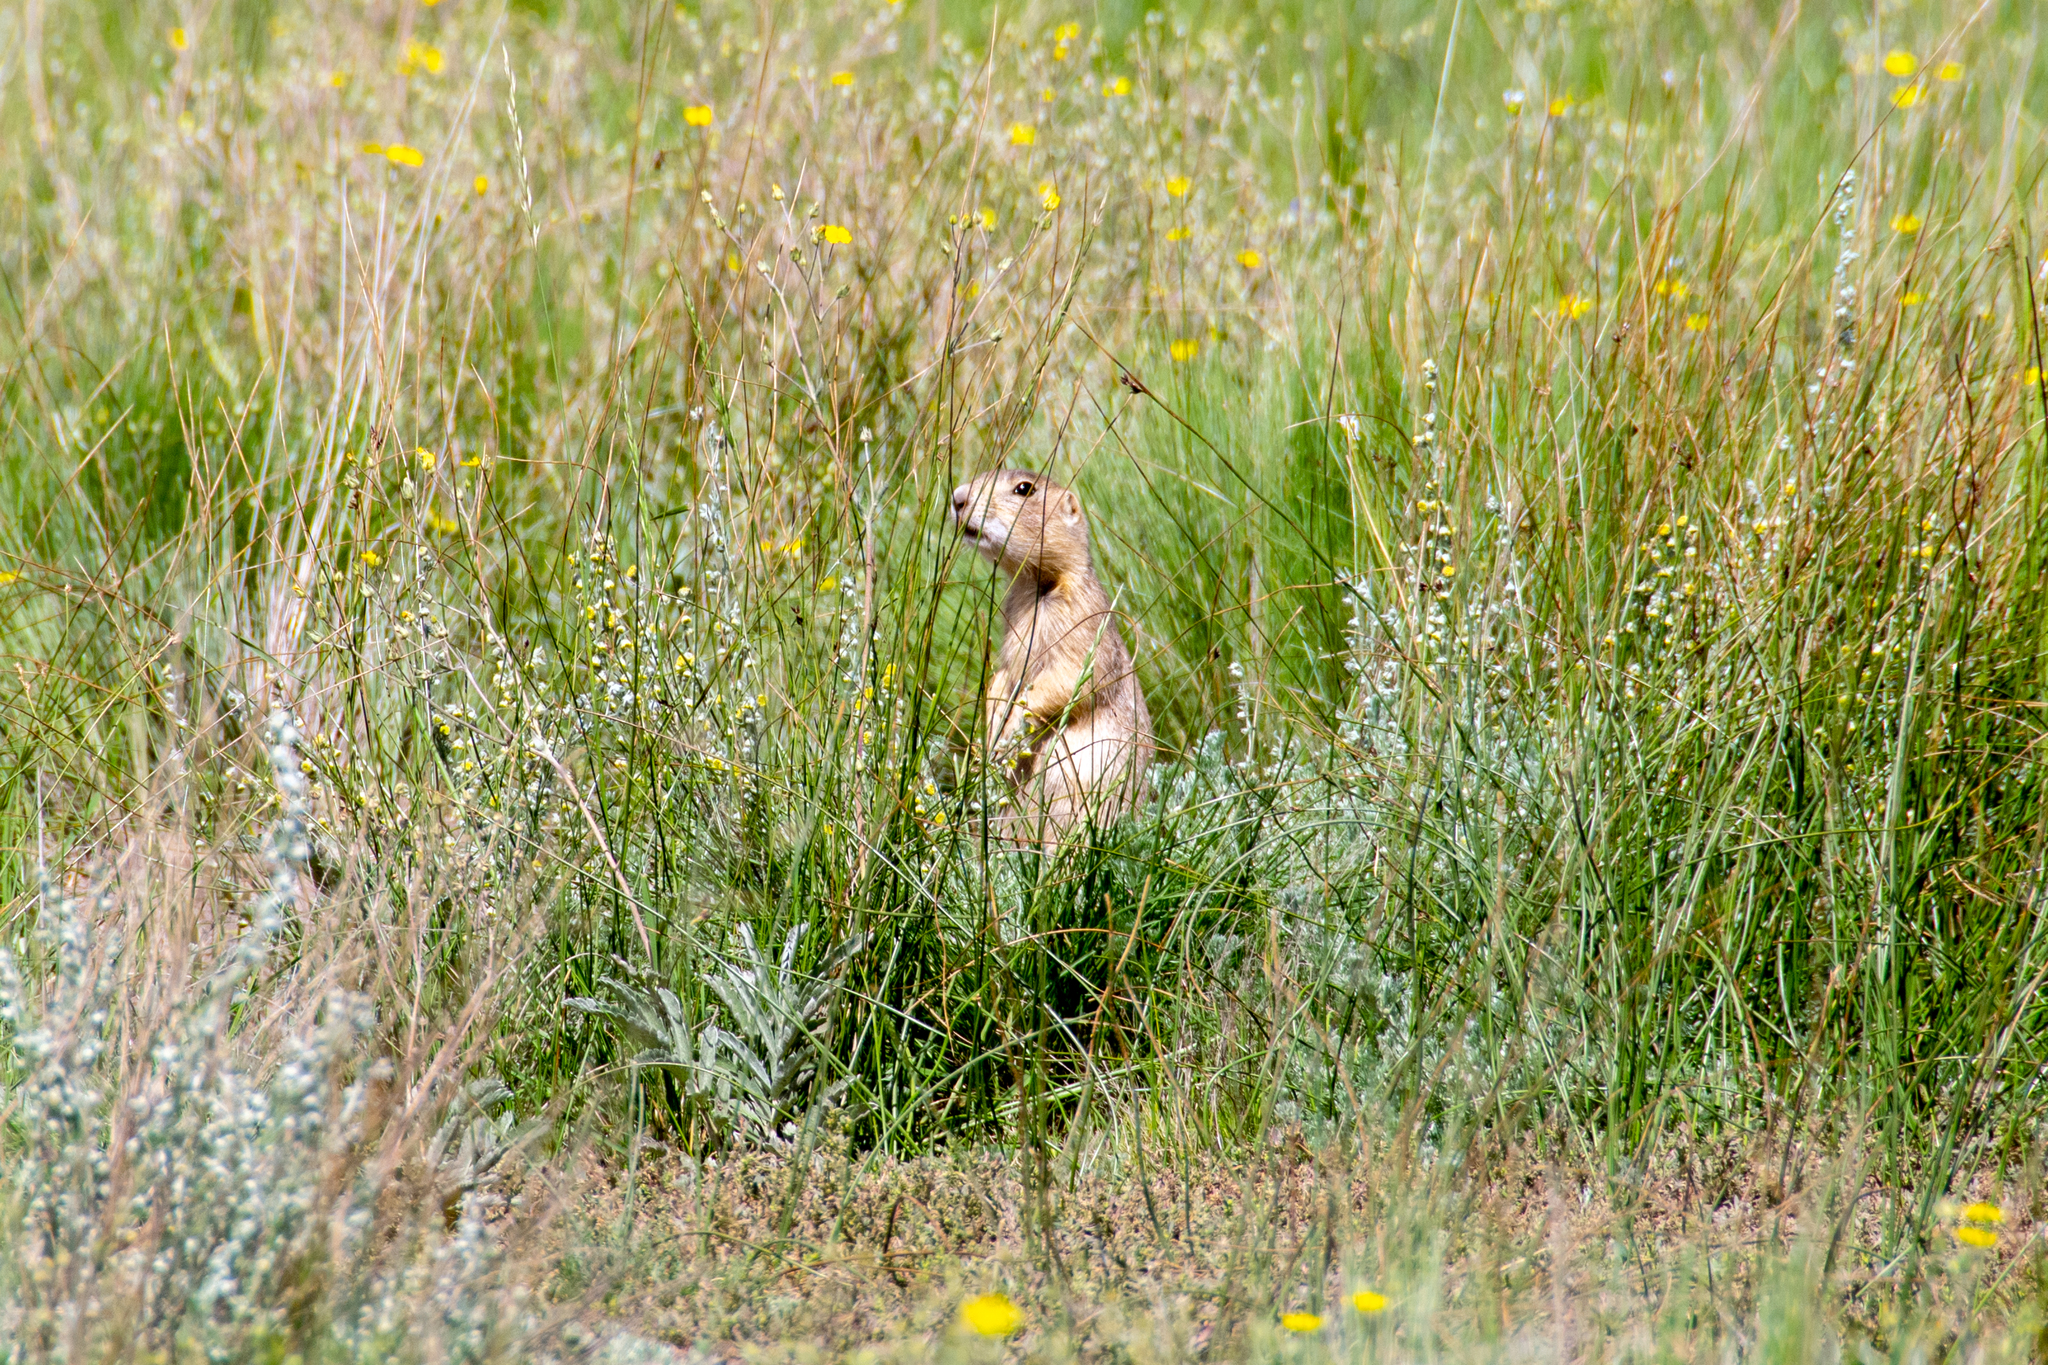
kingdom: Animalia
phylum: Chordata
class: Mammalia
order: Rodentia
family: Sciuridae
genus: Cynomys
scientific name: Cynomys gunnisoni
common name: Gunnison's prairie dog
